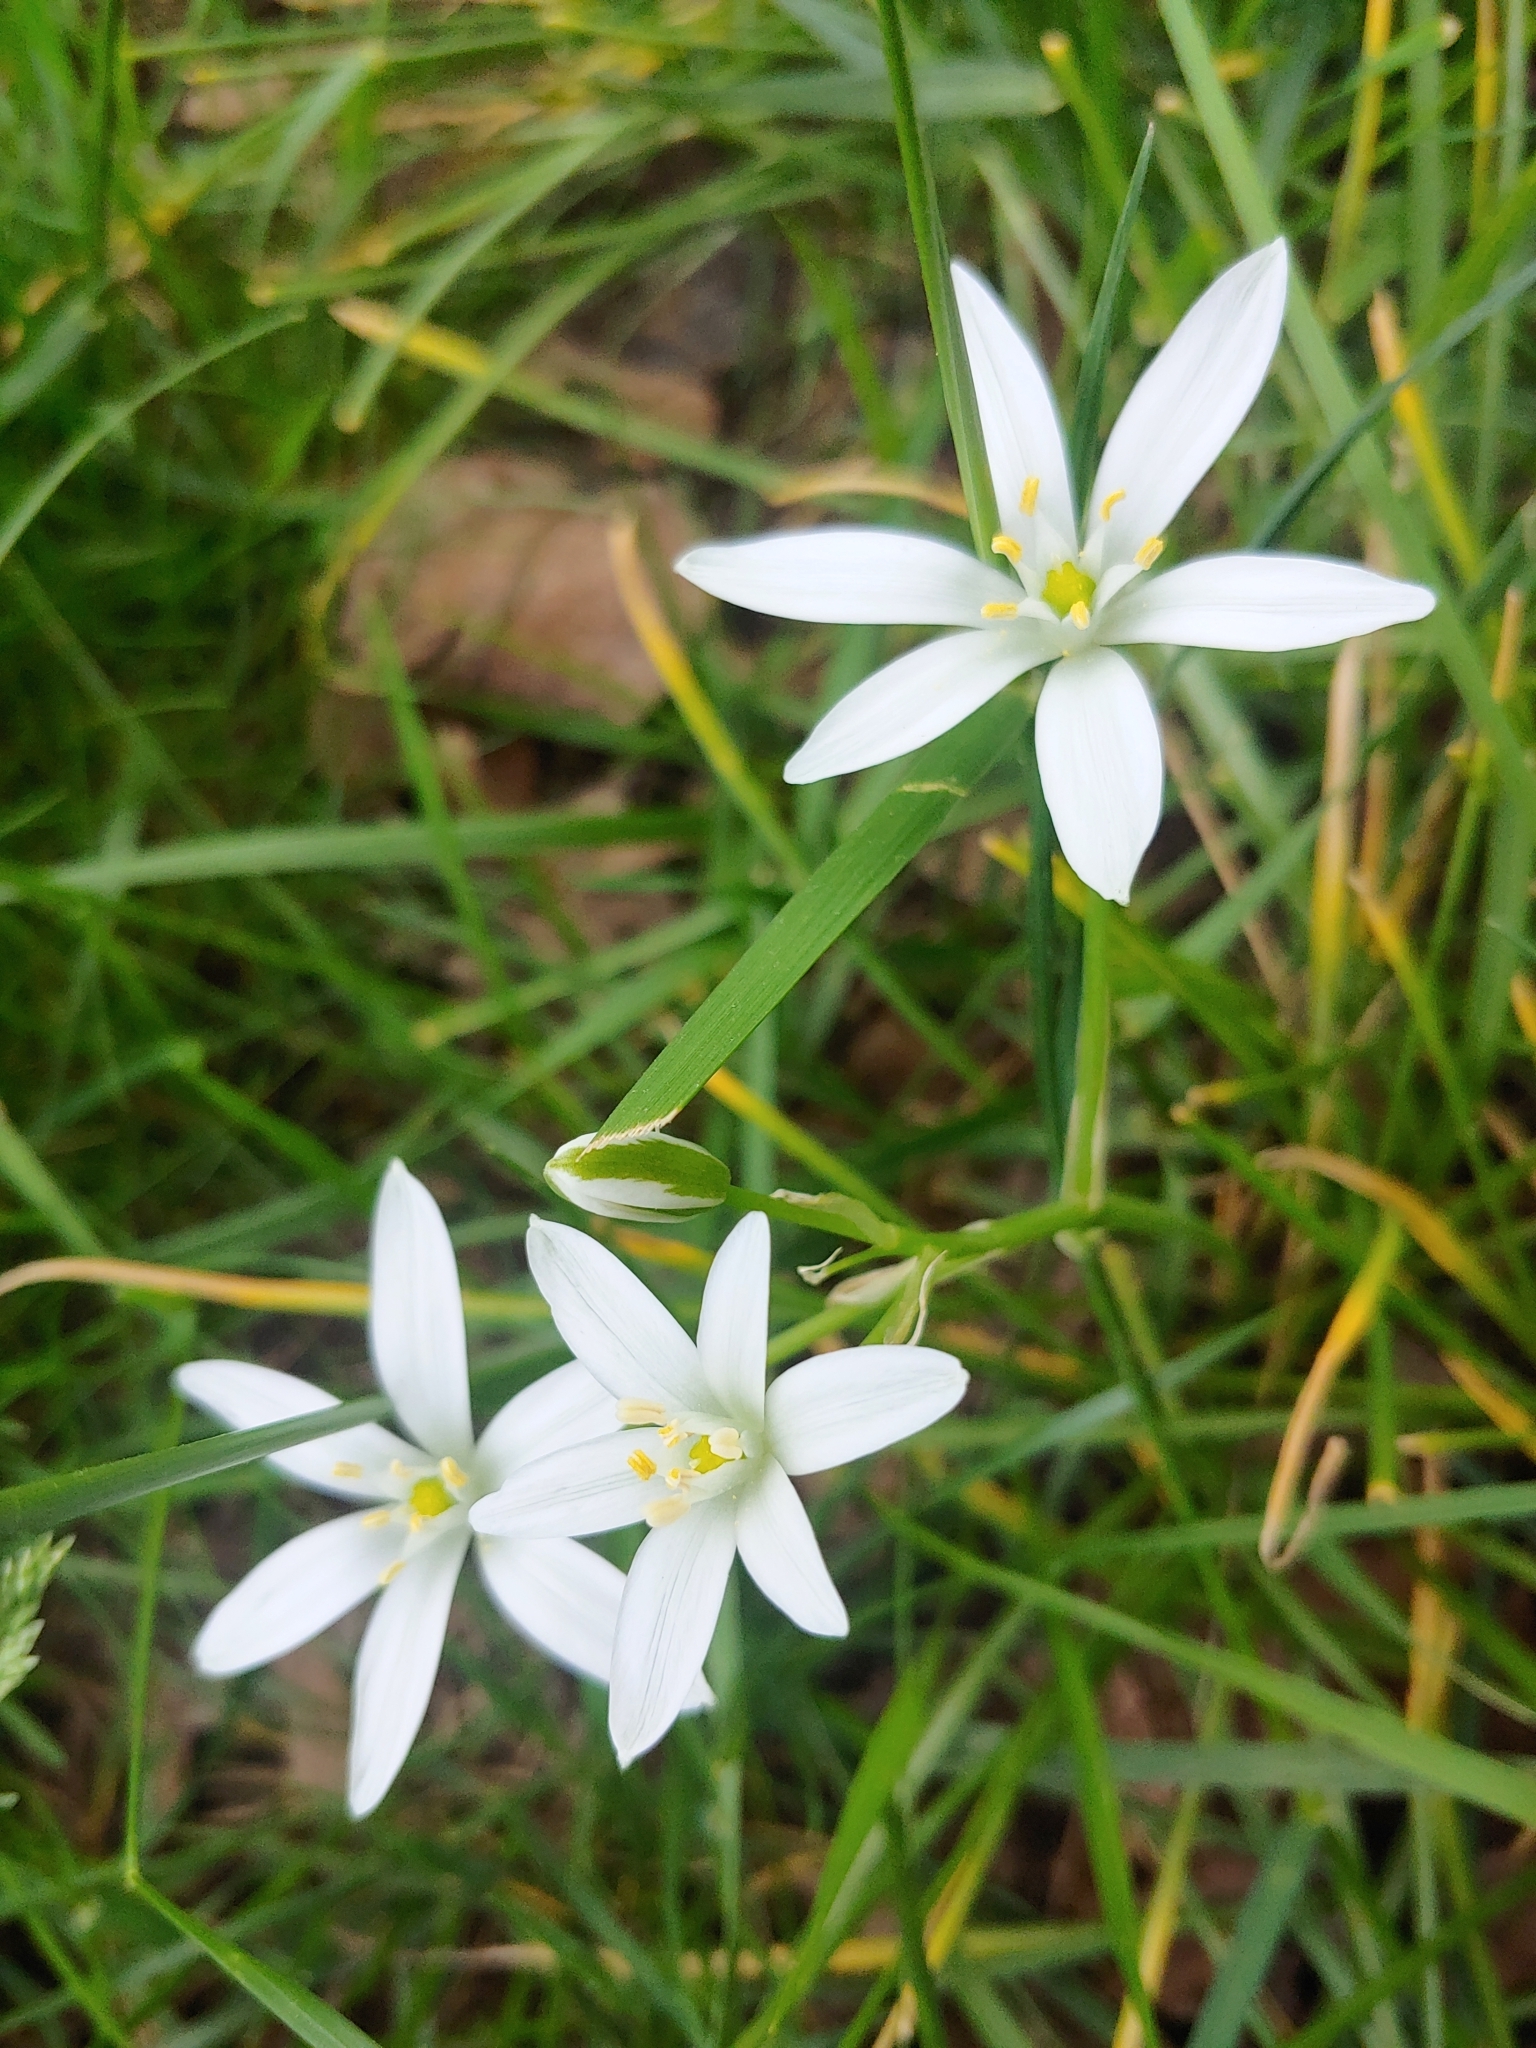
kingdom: Plantae
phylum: Tracheophyta
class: Liliopsida
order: Asparagales
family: Asparagaceae
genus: Ornithogalum
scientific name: Ornithogalum umbellatum
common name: Garden star-of-bethlehem
